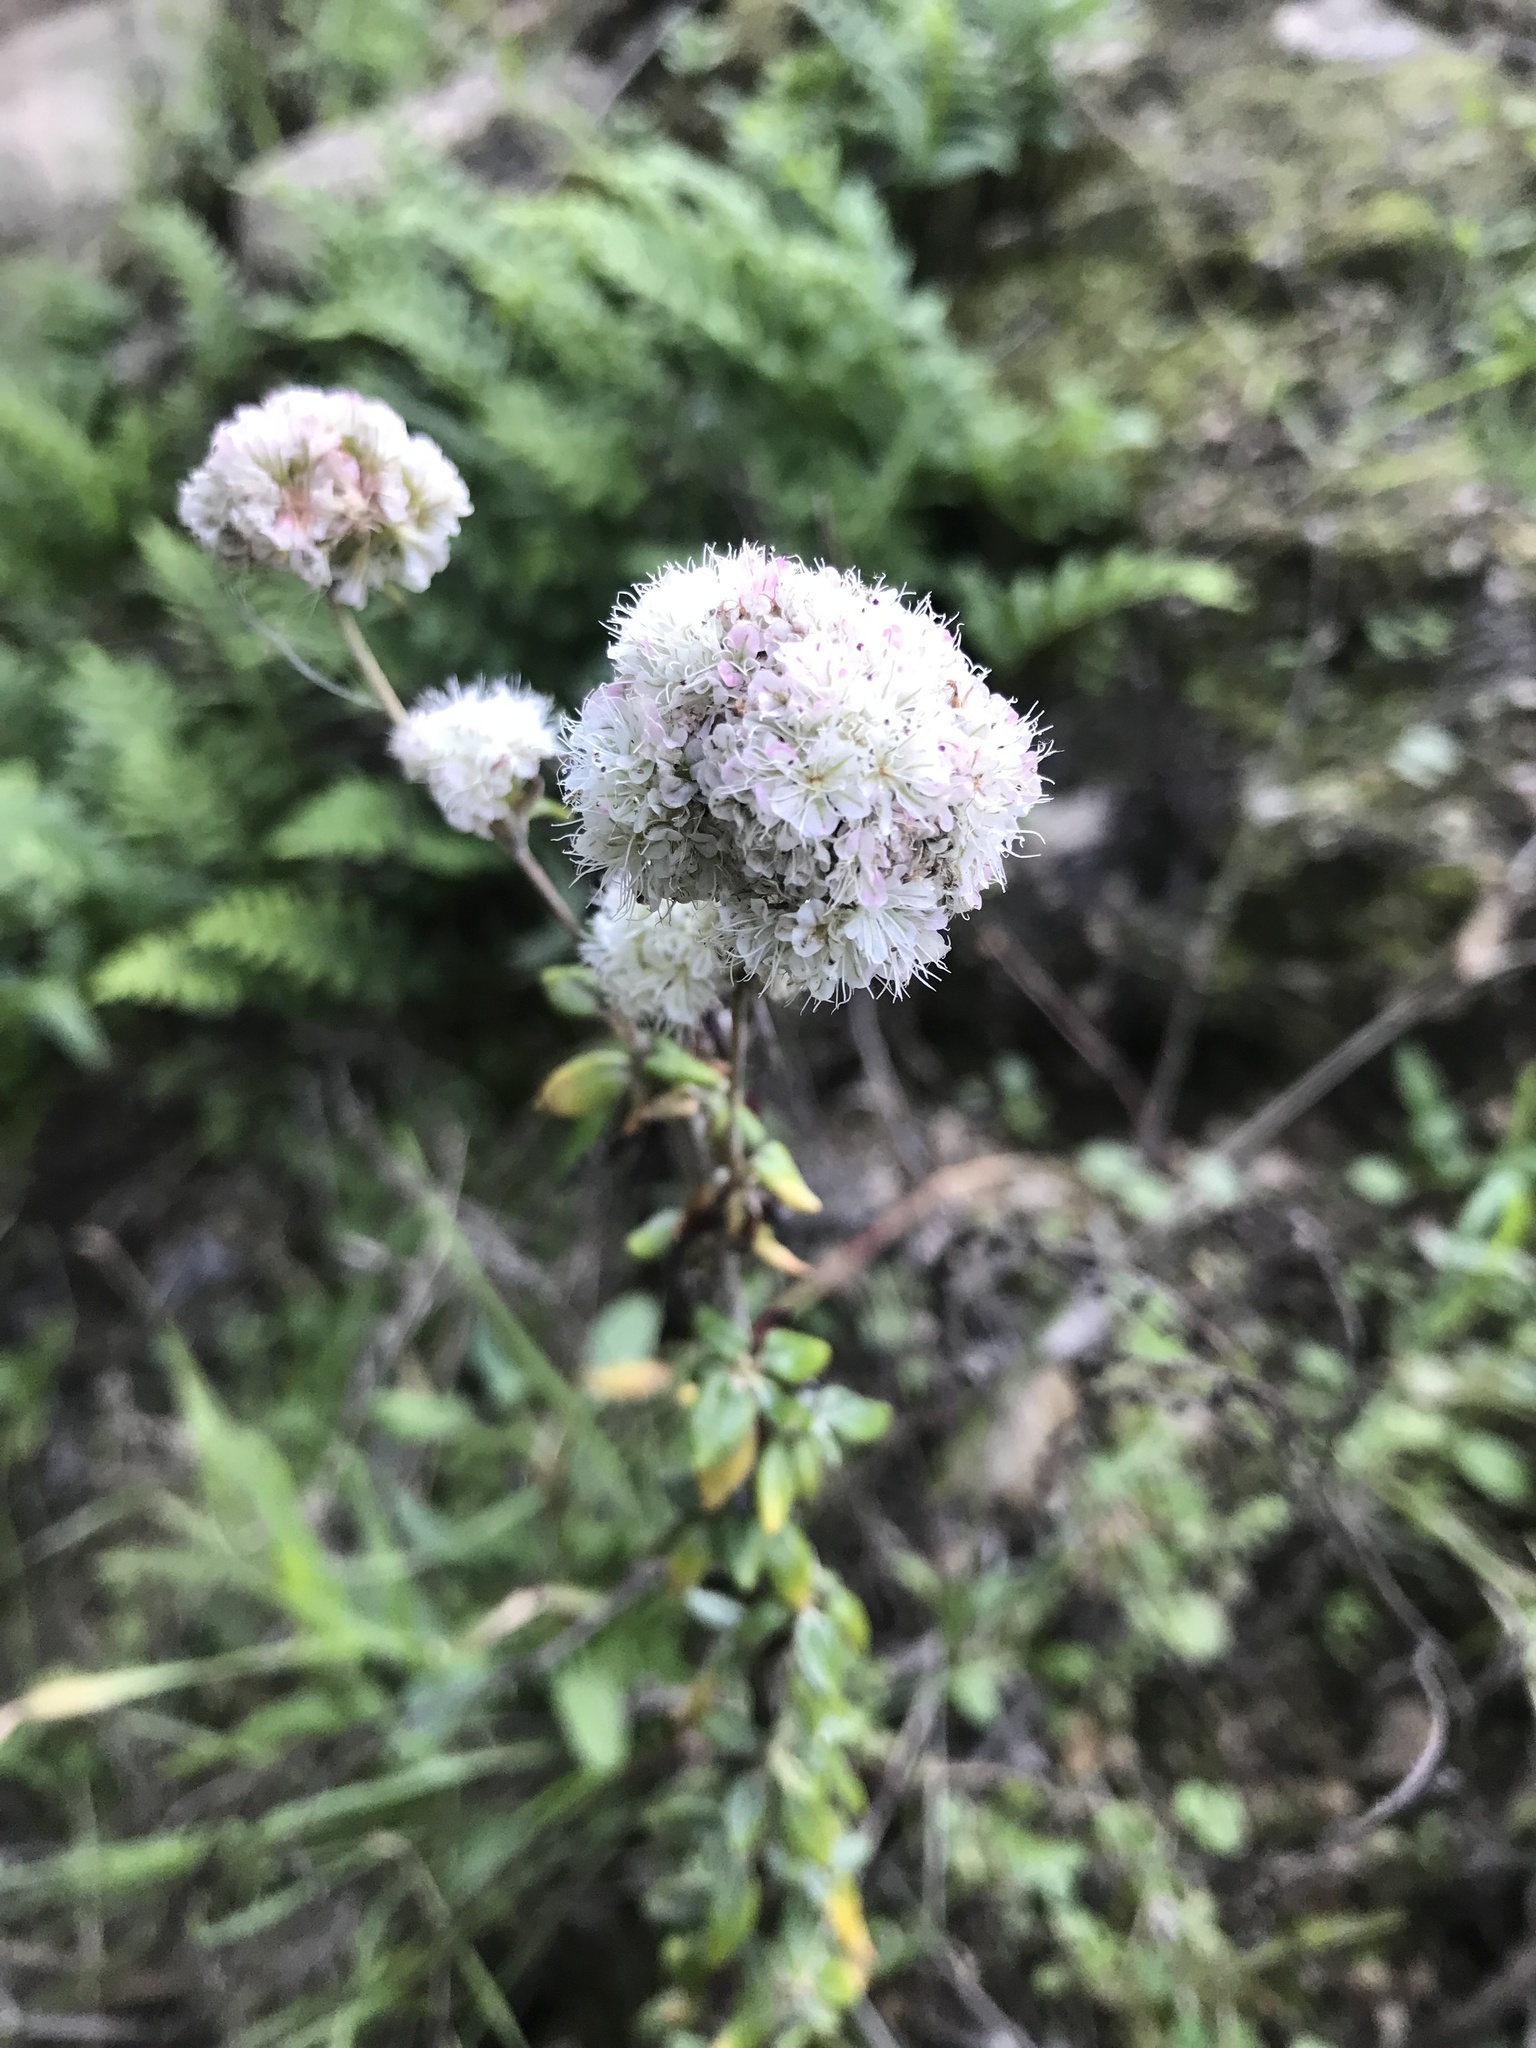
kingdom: Plantae
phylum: Tracheophyta
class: Magnoliopsida
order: Caryophyllales
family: Polygonaceae
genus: Eriogonum
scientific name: Eriogonum parvifolium
